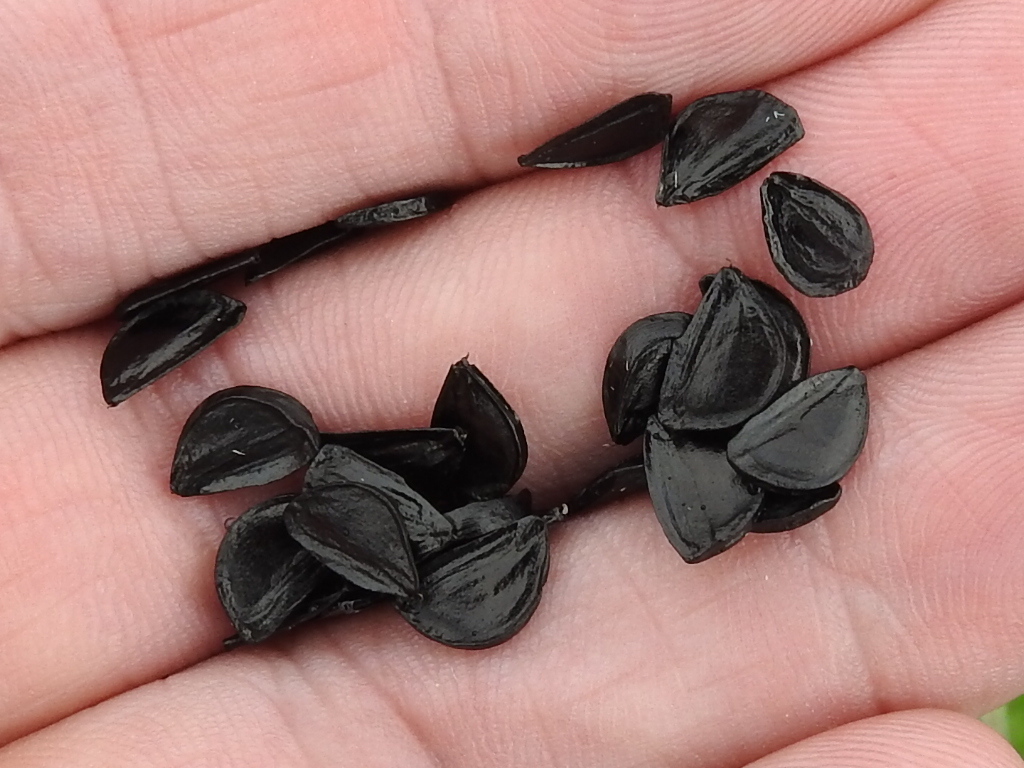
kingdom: Plantae
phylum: Tracheophyta
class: Liliopsida
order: Asparagales
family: Amaryllidaceae
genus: Zephyranthes
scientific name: Zephyranthes chlorosolen
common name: Evening rain-lily
